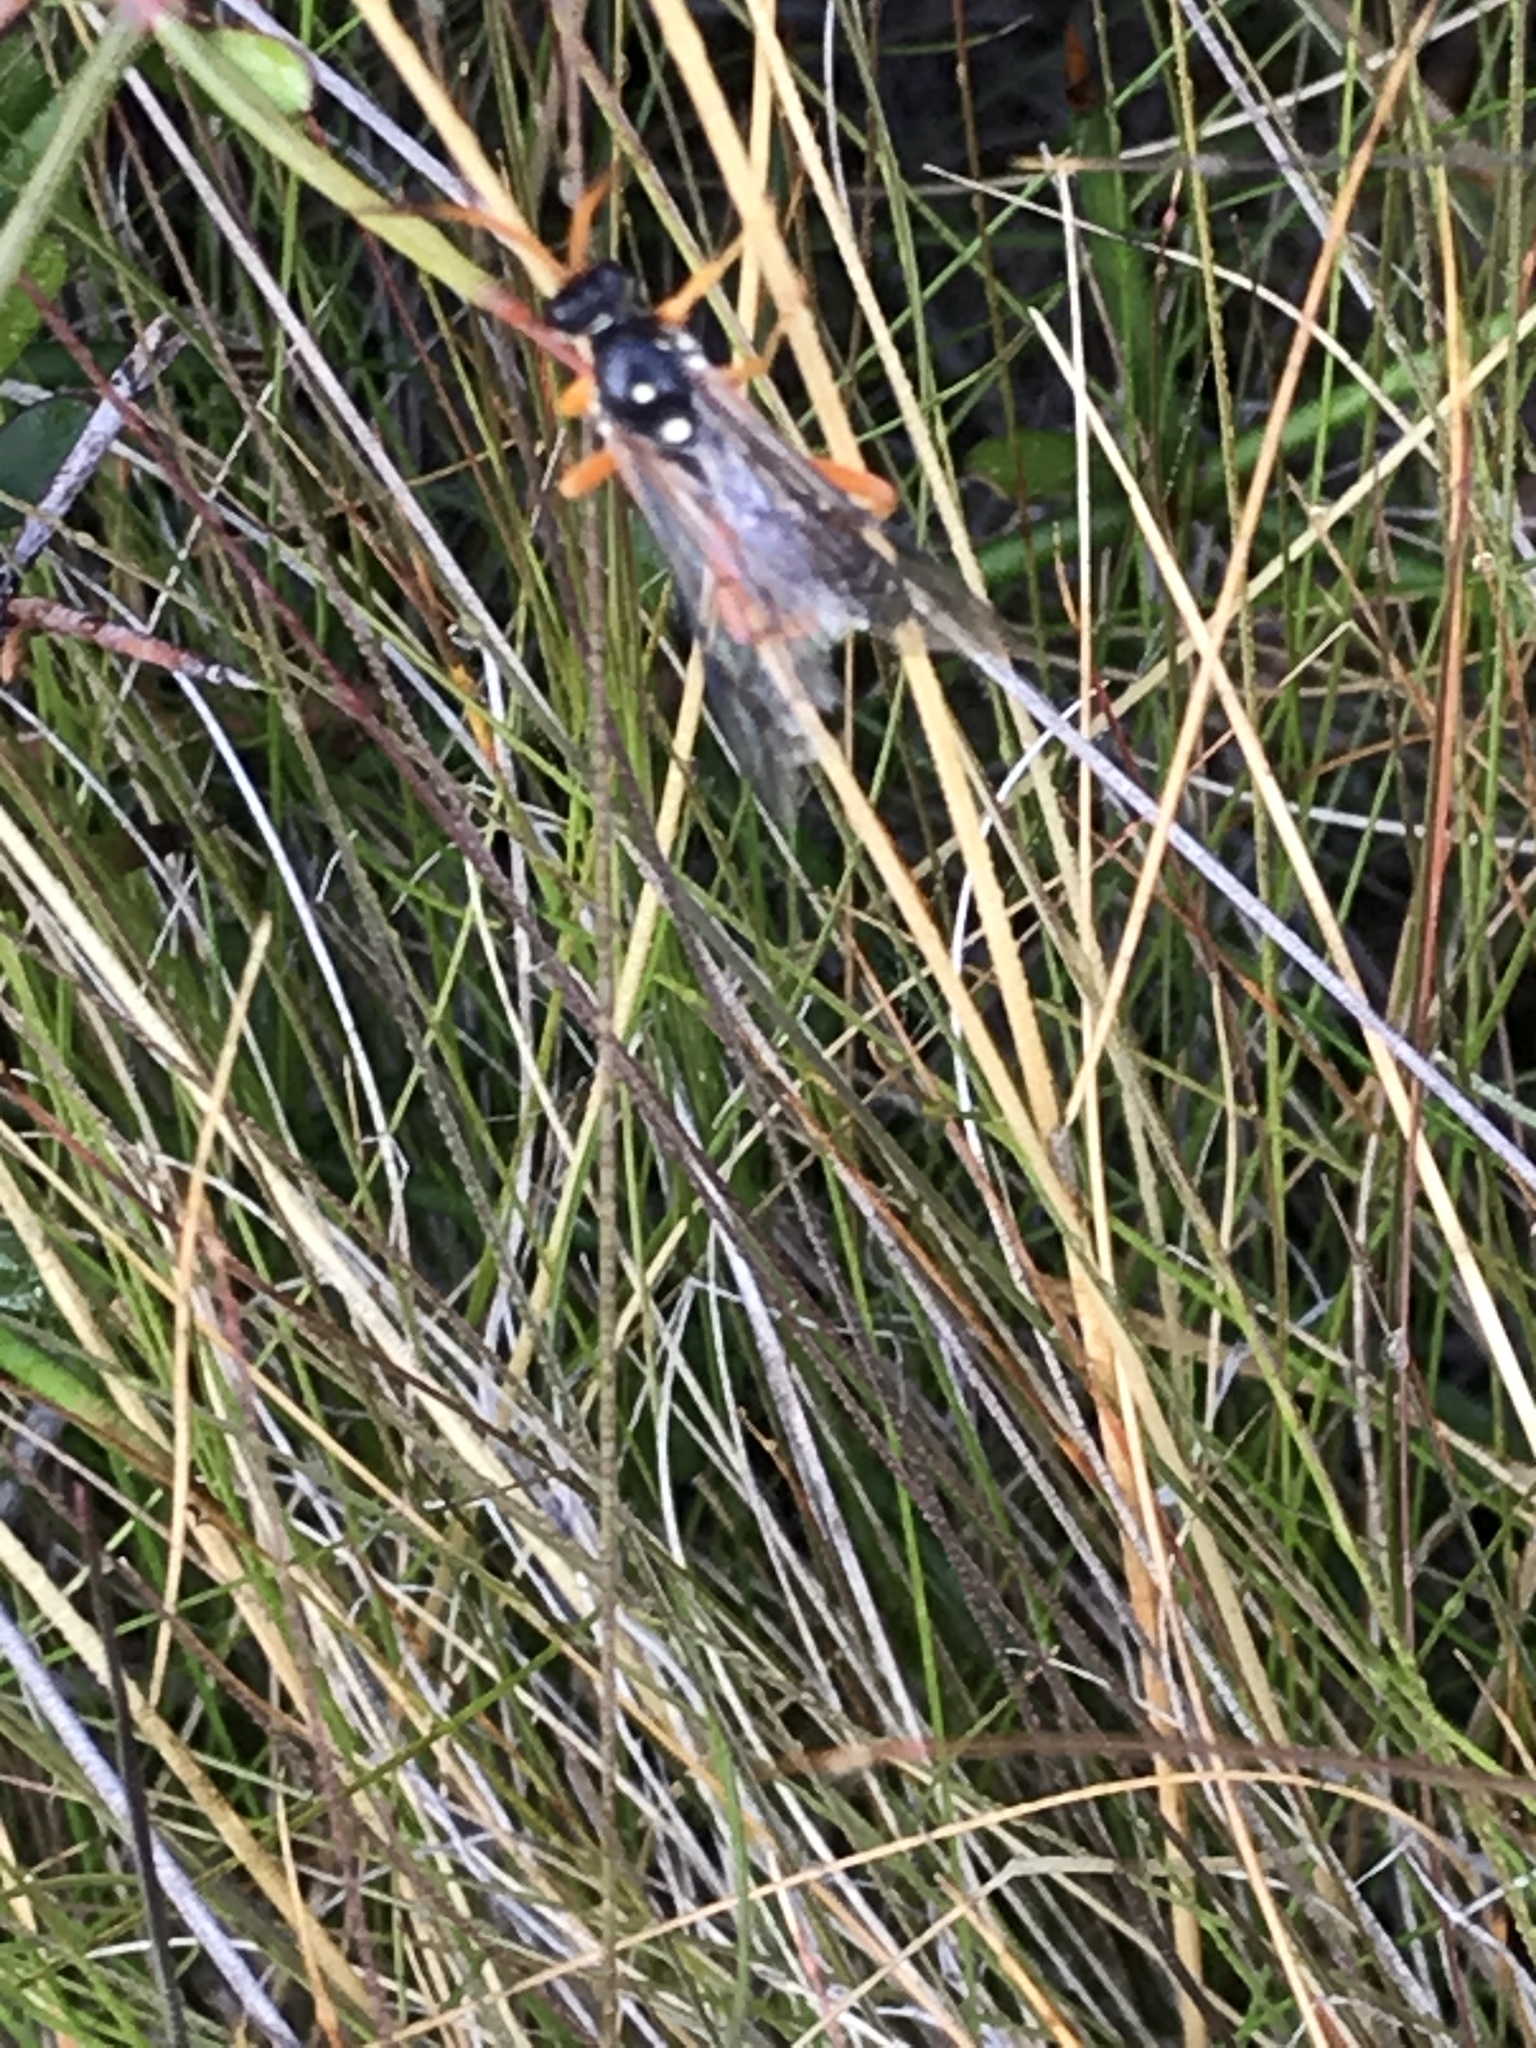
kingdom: Animalia
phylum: Arthropoda
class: Insecta
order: Hymenoptera
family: Ichneumonidae
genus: Eutanyacra
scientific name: Eutanyacra licitatoria
